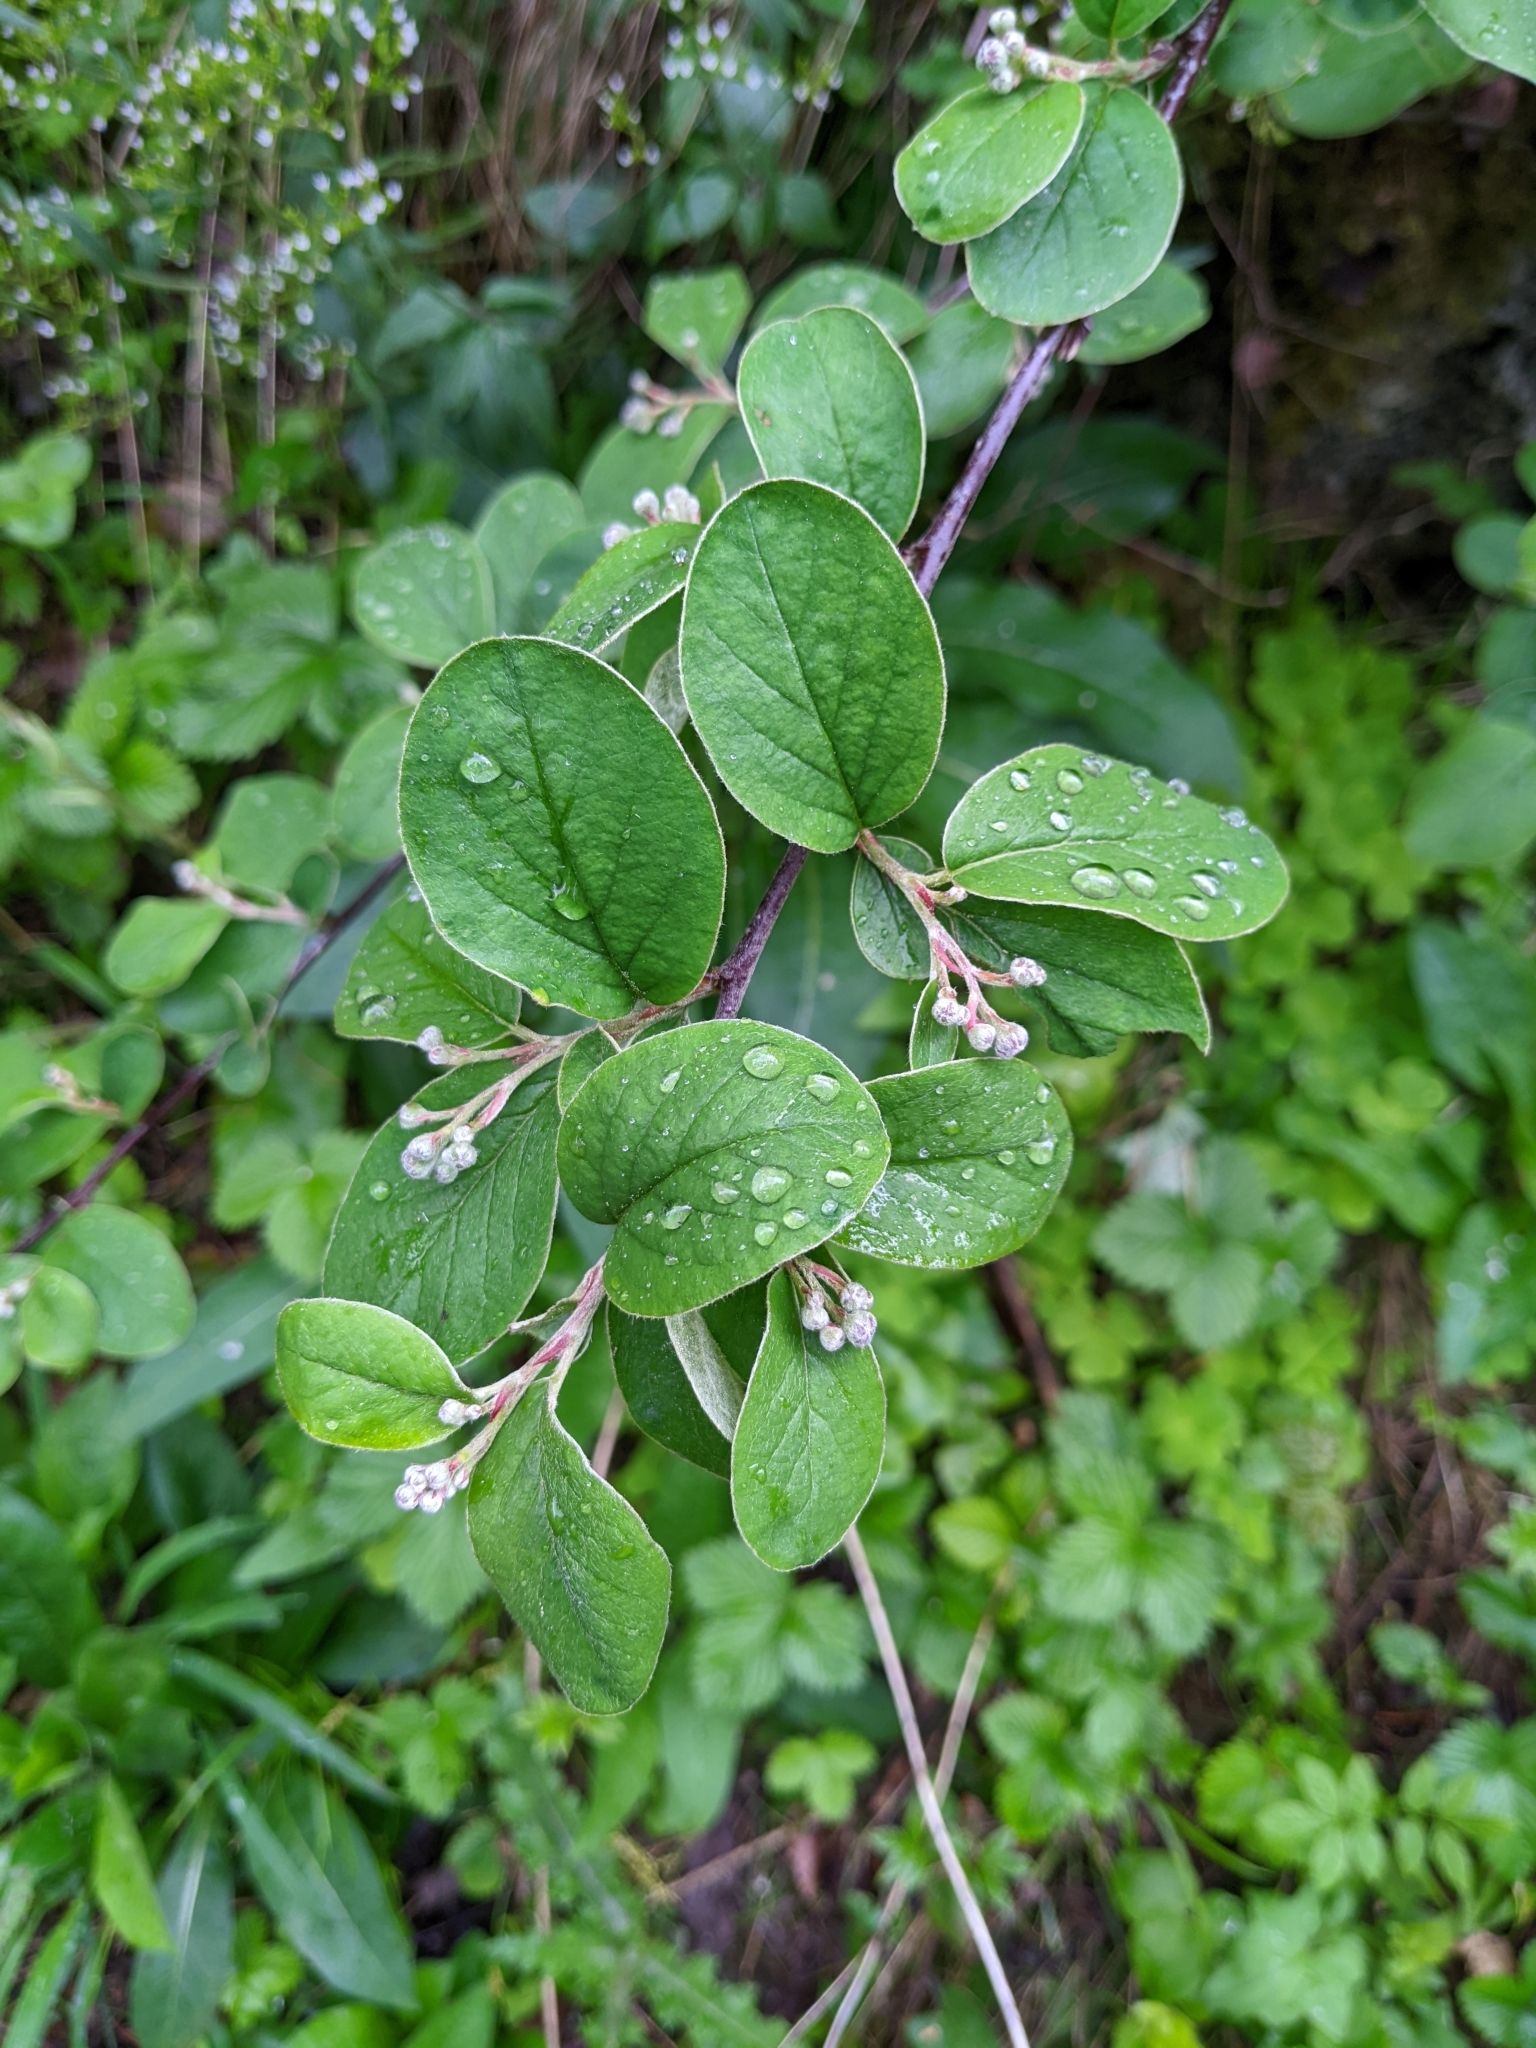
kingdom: Plantae
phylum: Tracheophyta
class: Magnoliopsida
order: Rosales
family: Rosaceae
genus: Cotoneaster
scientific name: Cotoneaster tomentosus
